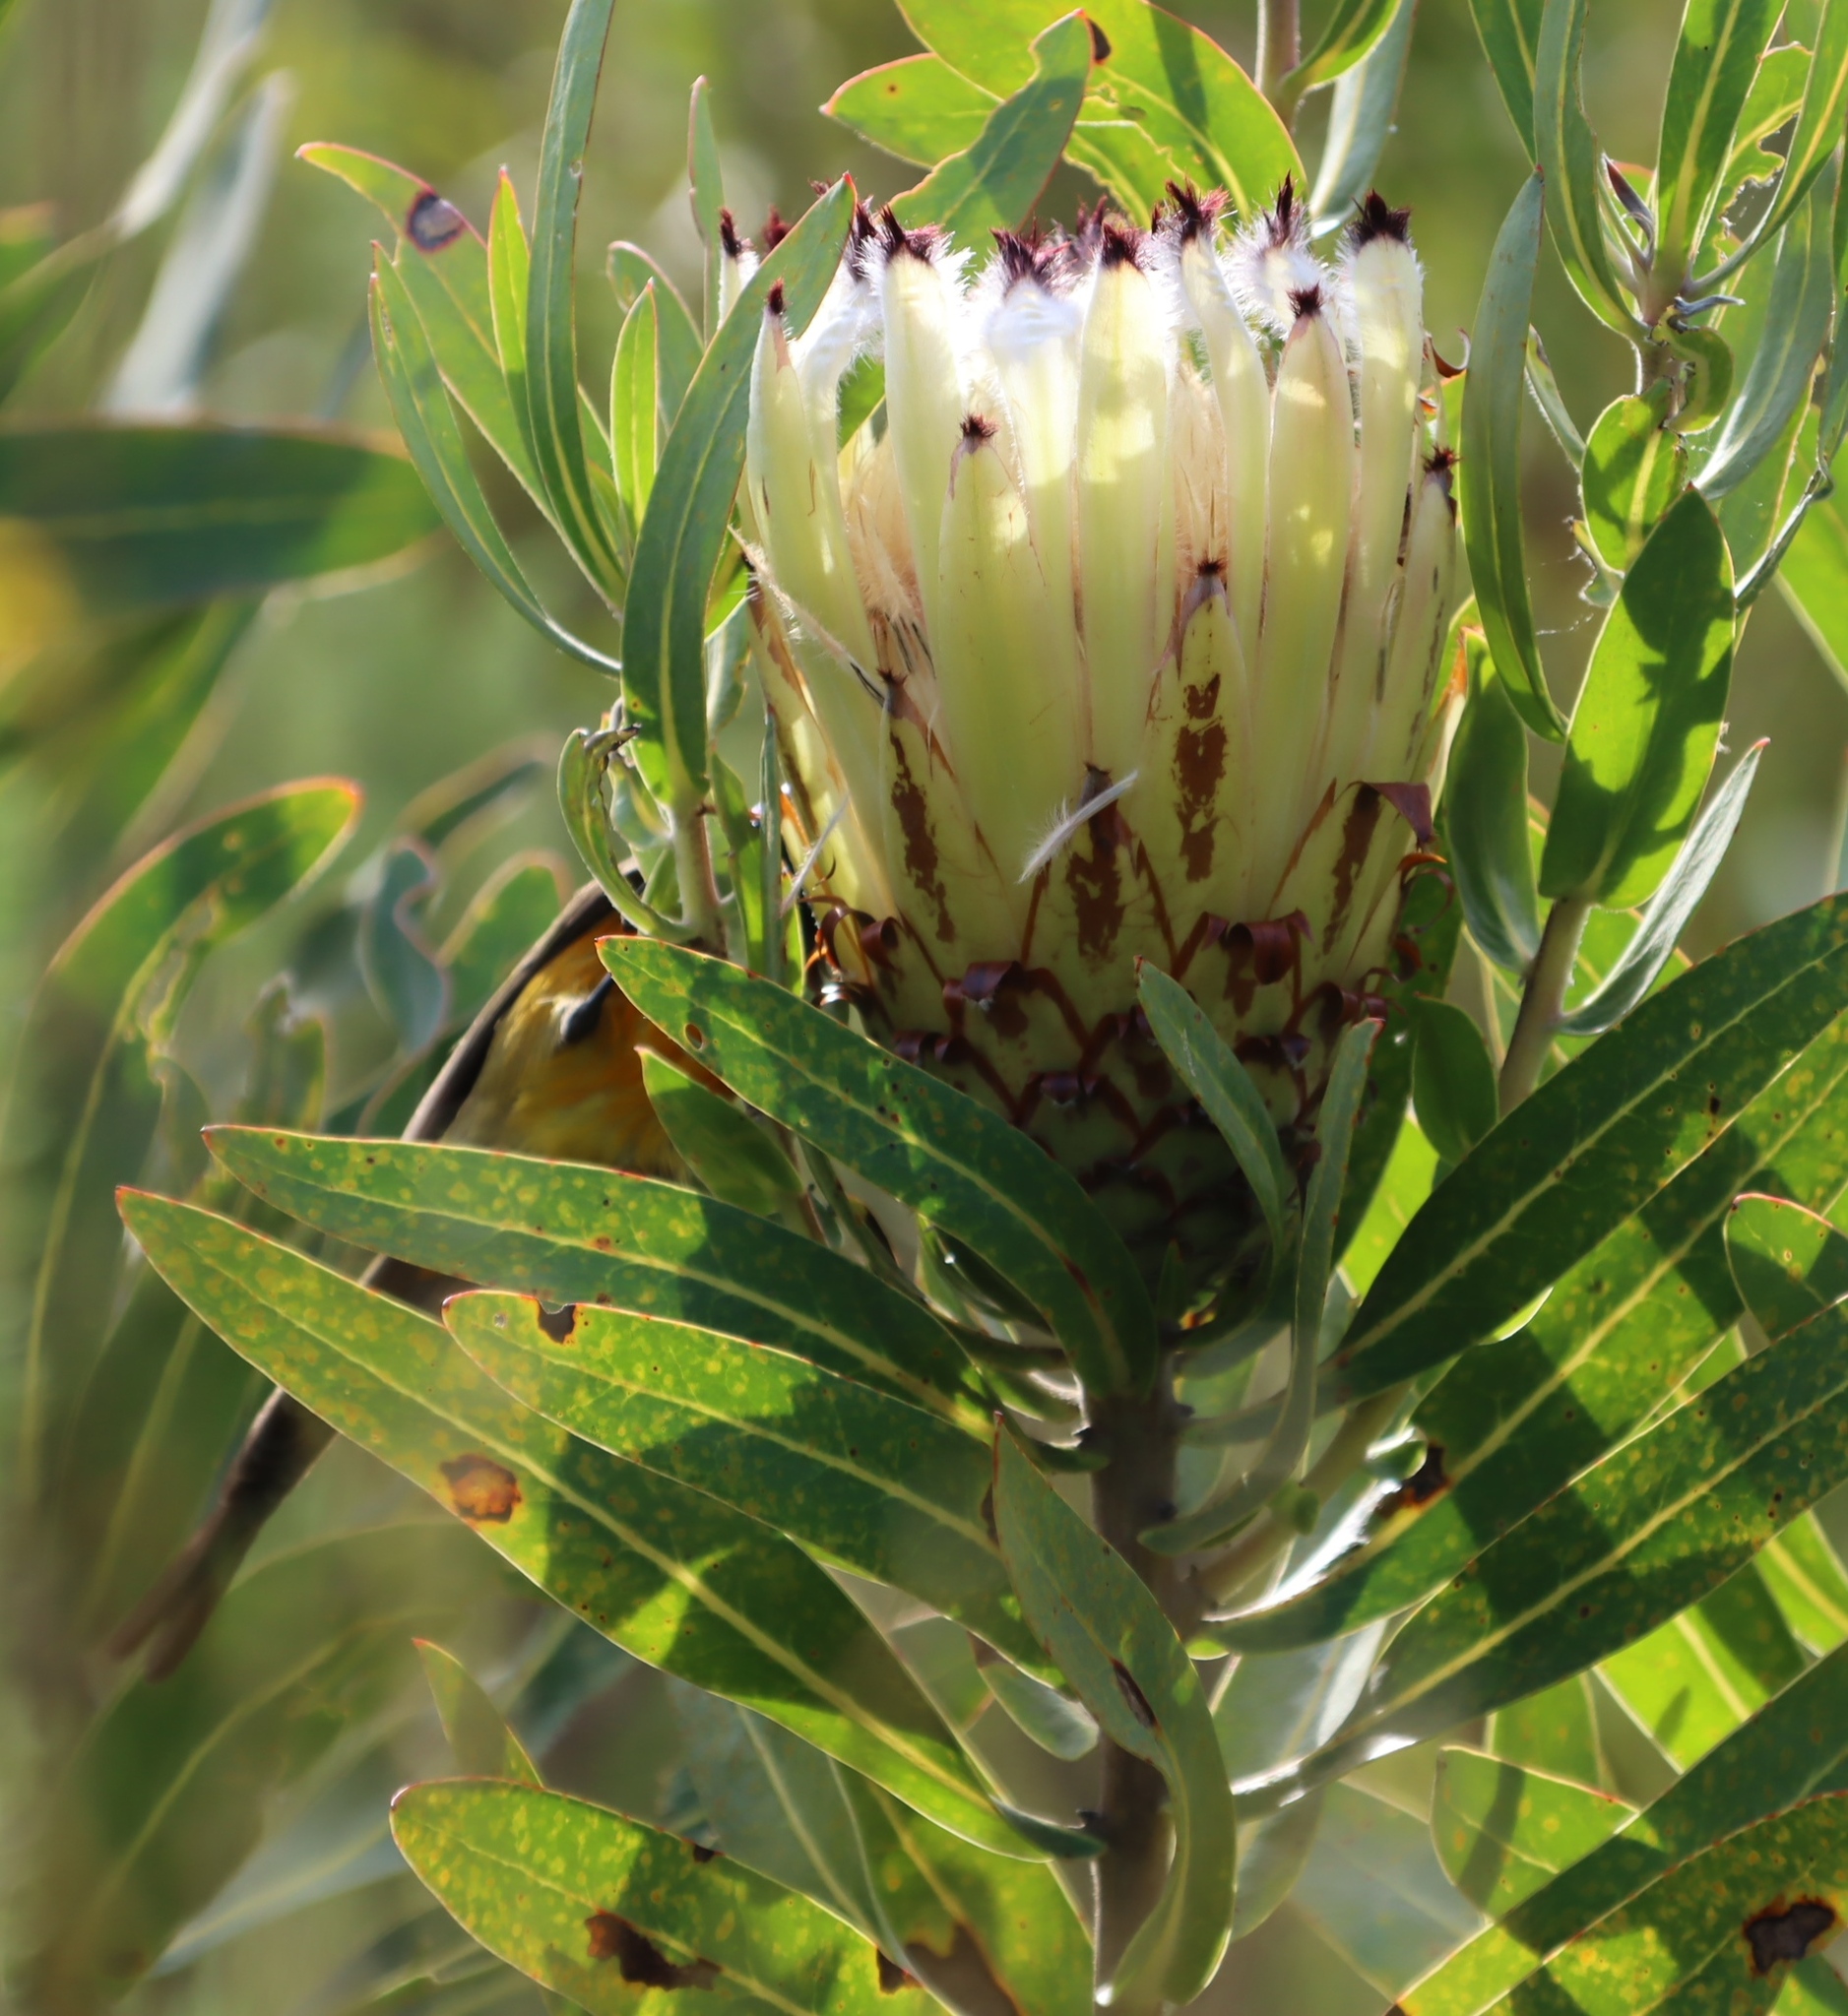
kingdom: Animalia
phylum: Chordata
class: Aves
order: Passeriformes
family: Nectariniidae
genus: Anthobaphes
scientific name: Anthobaphes violacea
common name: Orange-breasted sunbird
